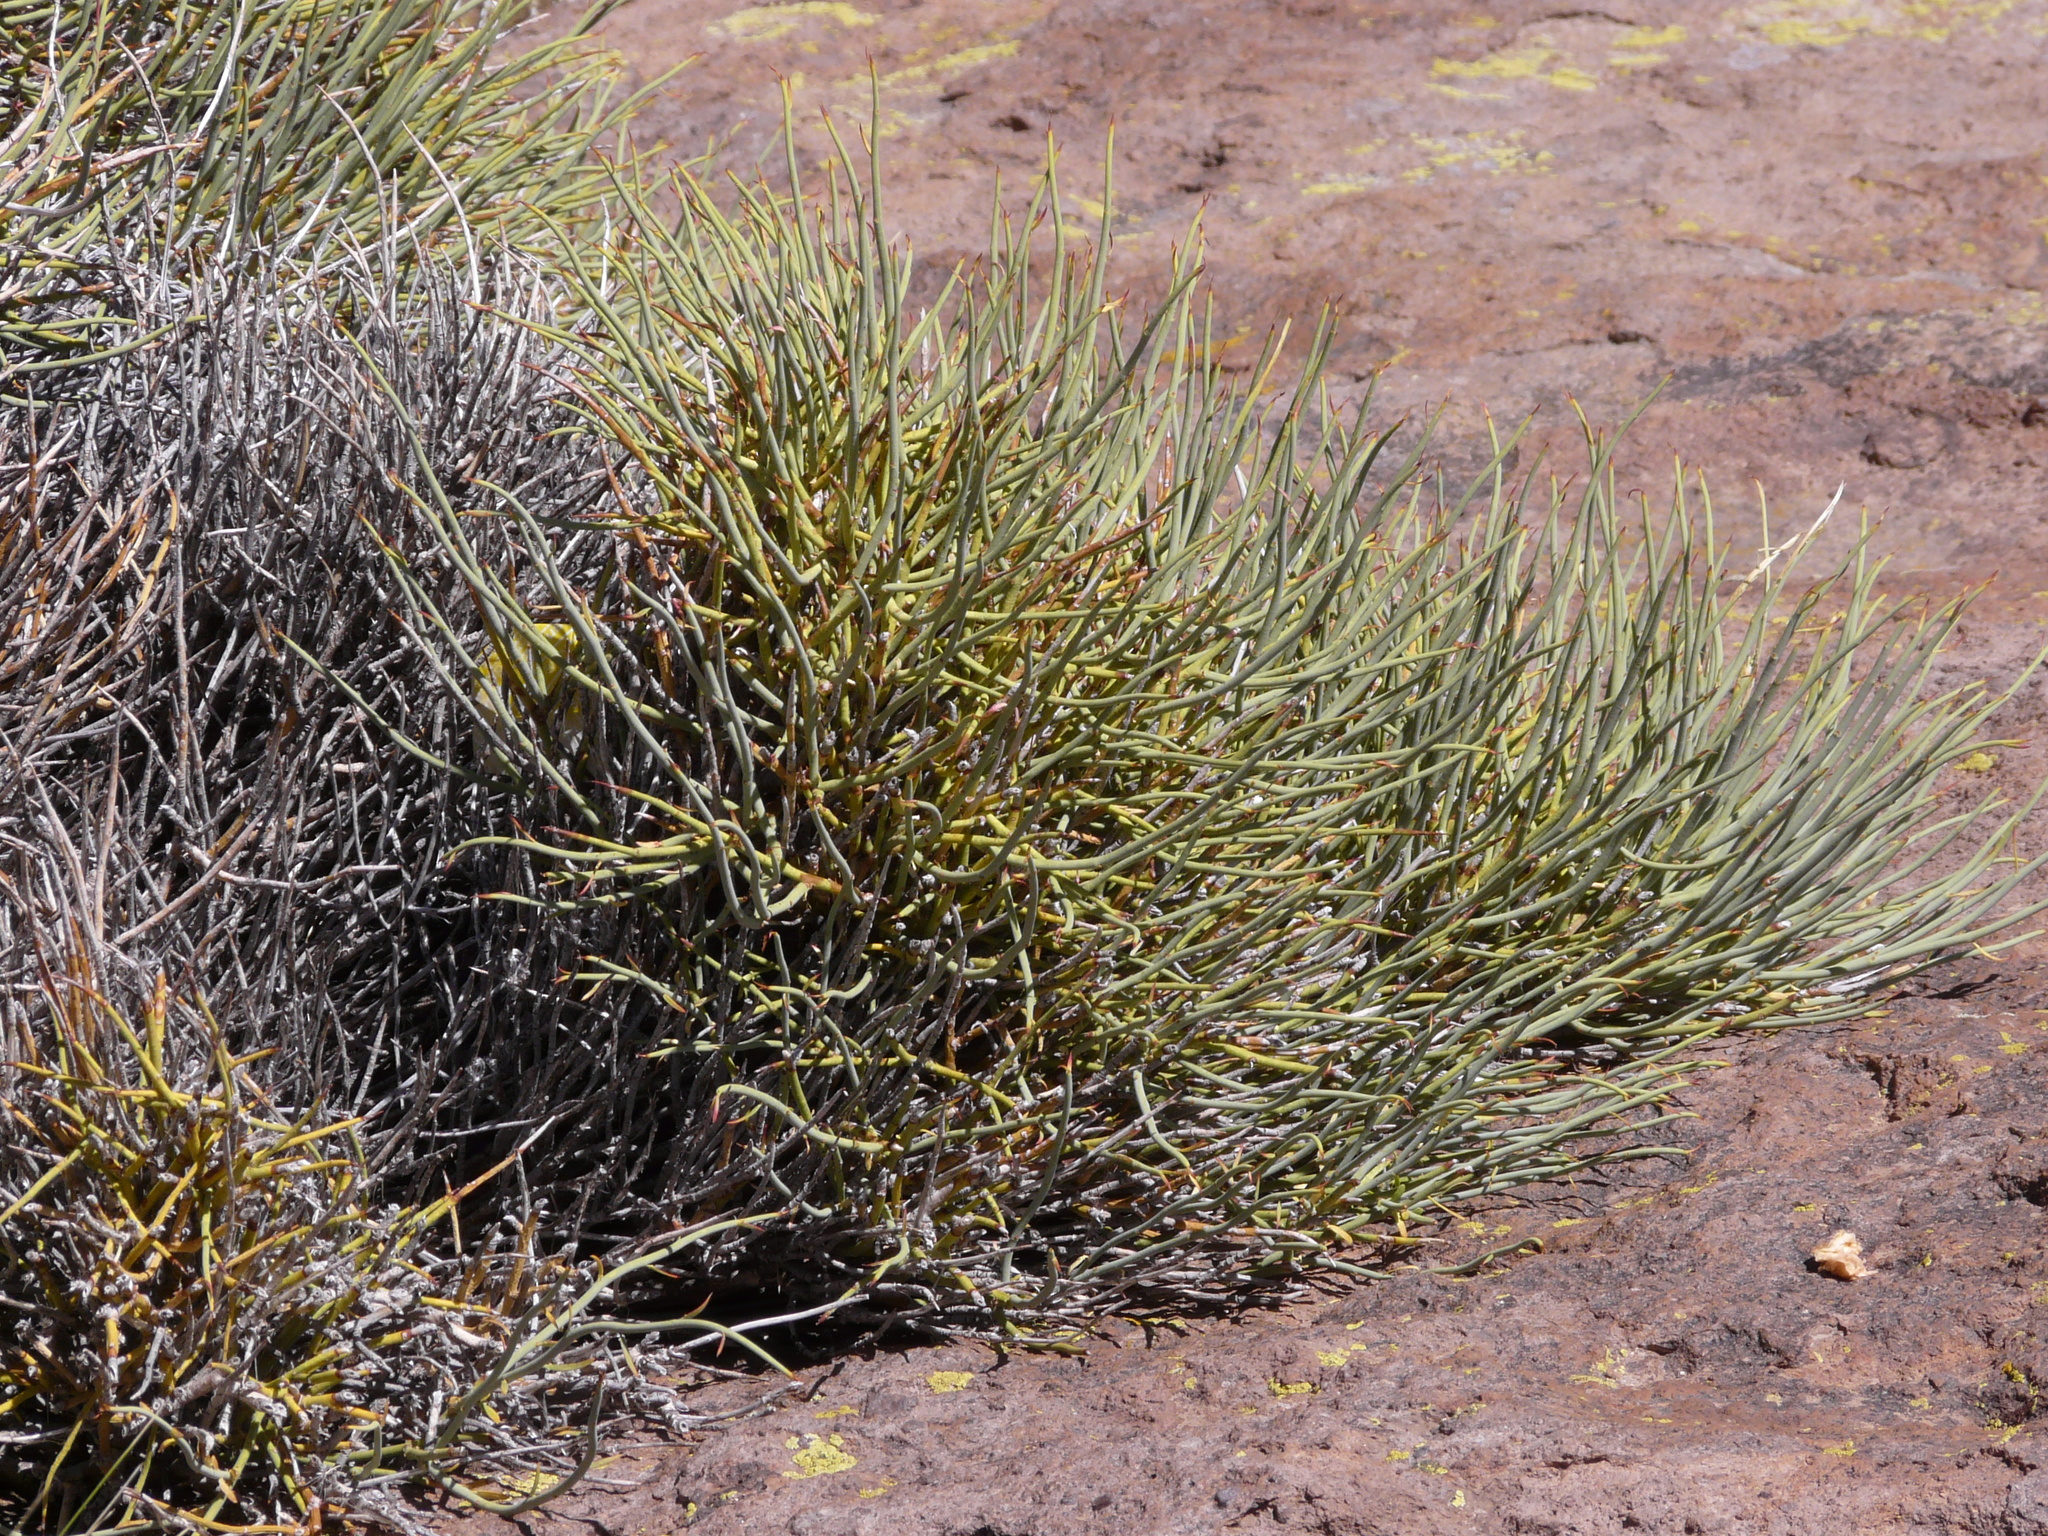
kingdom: Plantae
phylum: Tracheophyta
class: Magnoliopsida
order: Lamiales
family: Verbenaceae
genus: Neosparton
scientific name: Neosparton aphyllum
